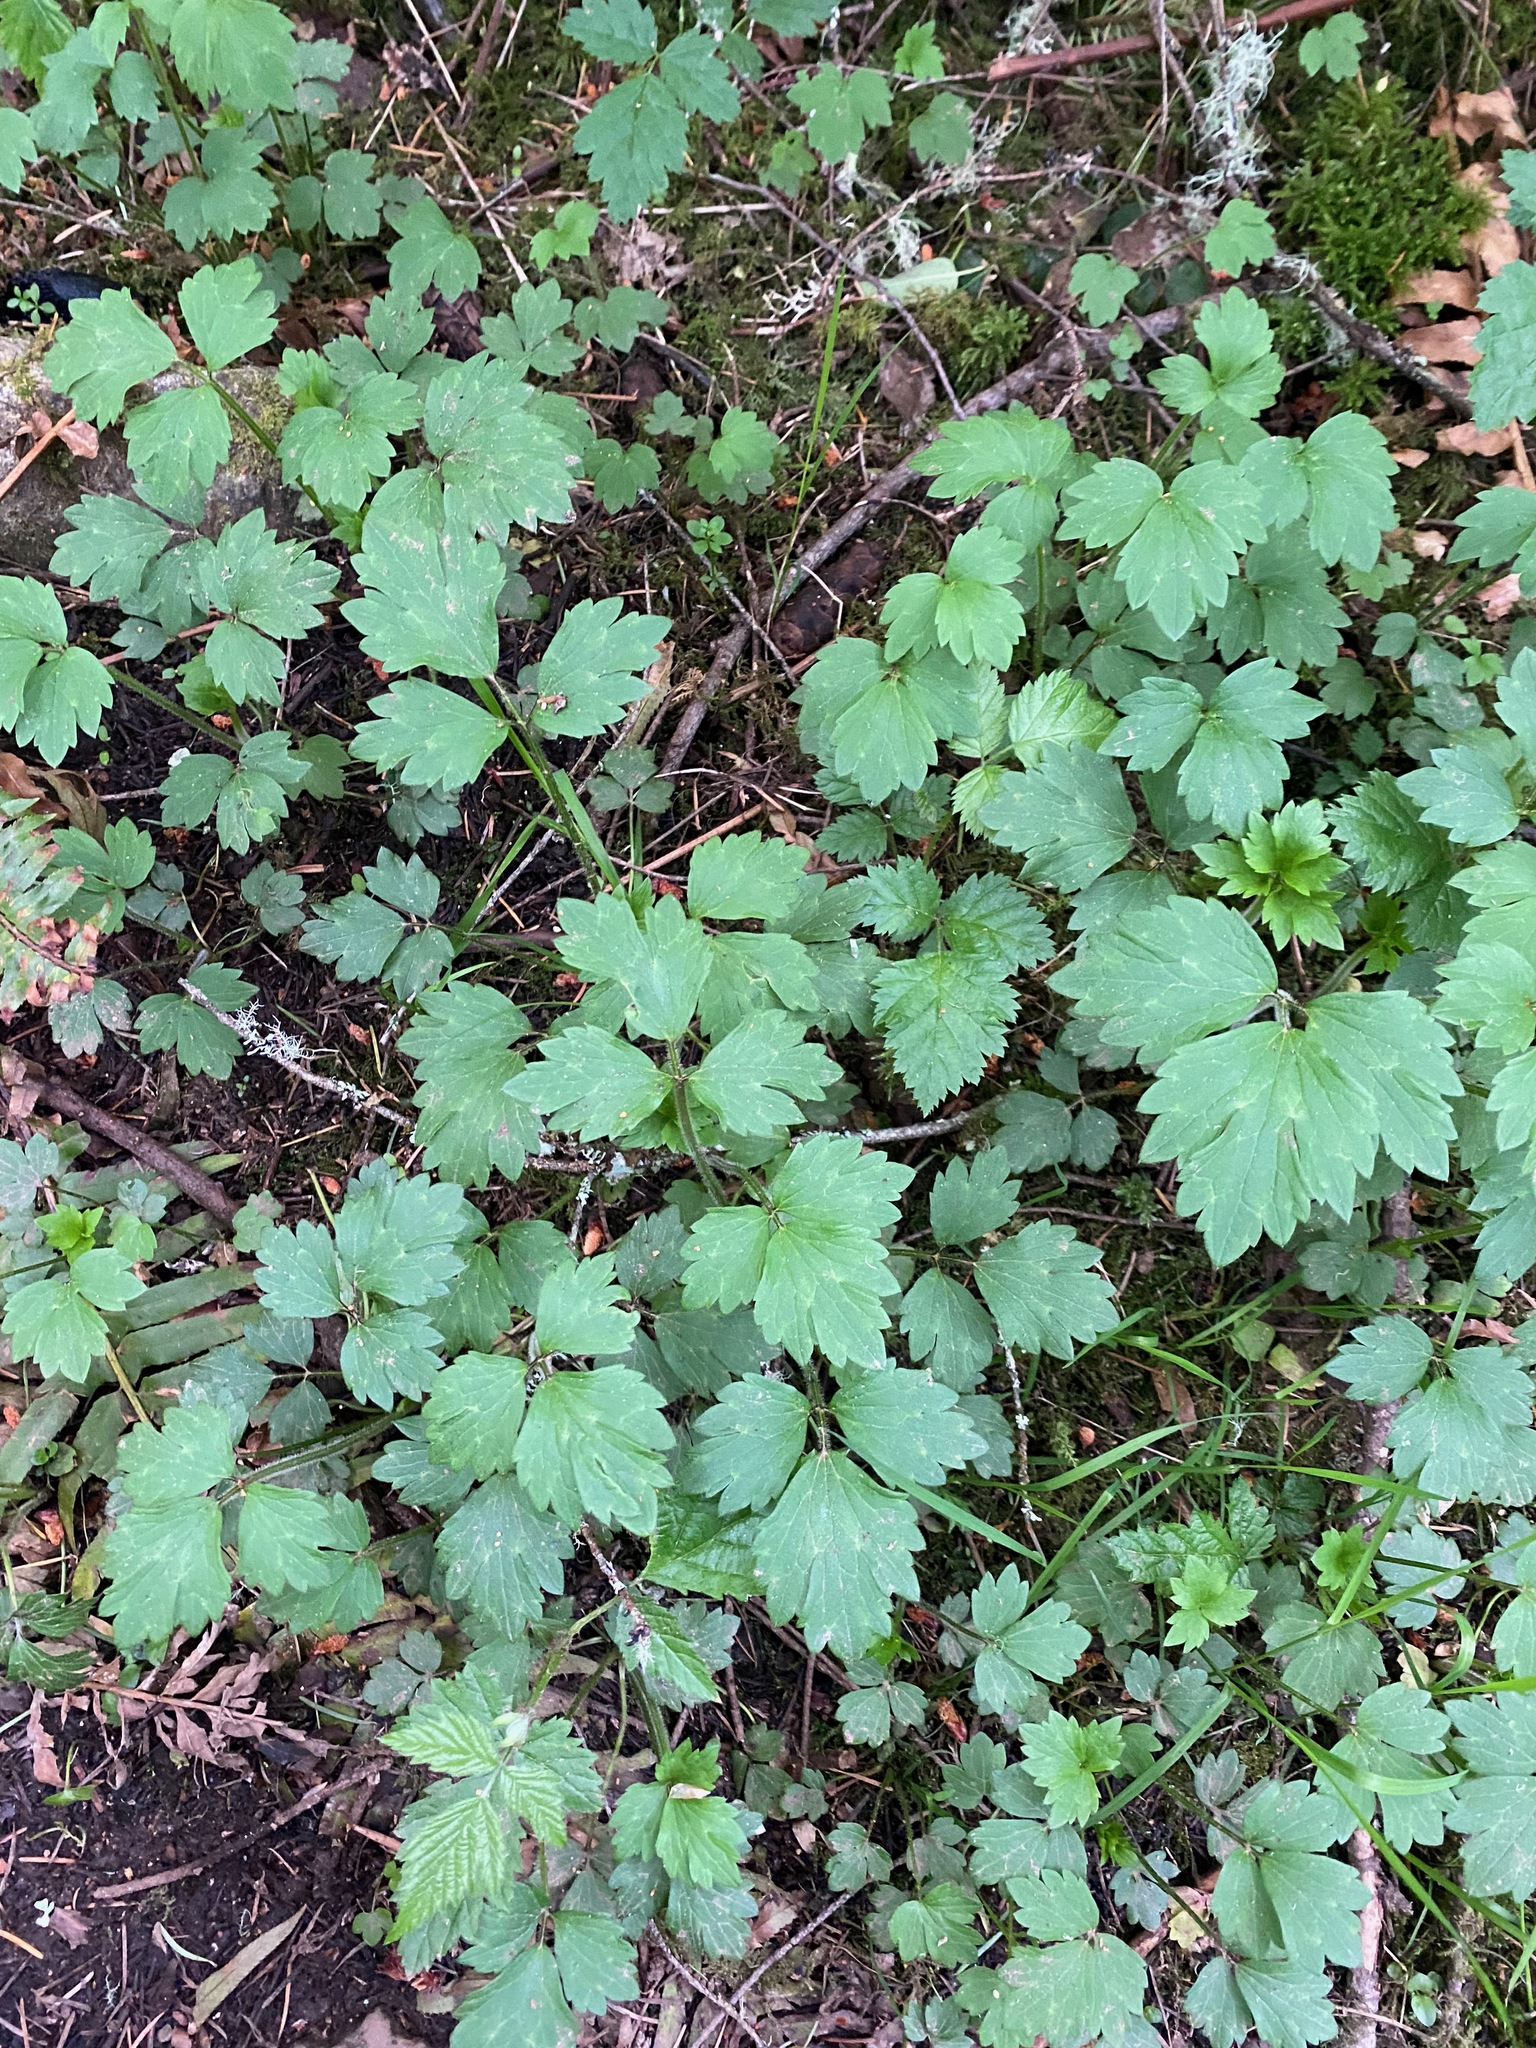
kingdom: Plantae
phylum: Tracheophyta
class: Magnoliopsida
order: Ranunculales
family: Ranunculaceae
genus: Ranunculus
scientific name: Ranunculus repens
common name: Creeping buttercup
